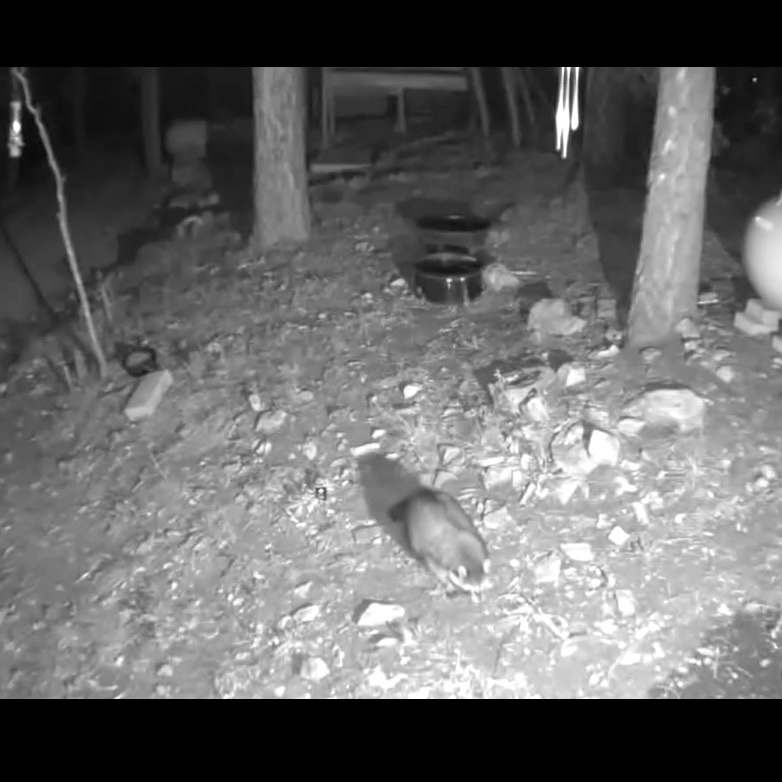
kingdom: Animalia
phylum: Chordata
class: Mammalia
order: Carnivora
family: Procyonidae
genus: Procyon
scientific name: Procyon lotor
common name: Raccoon
